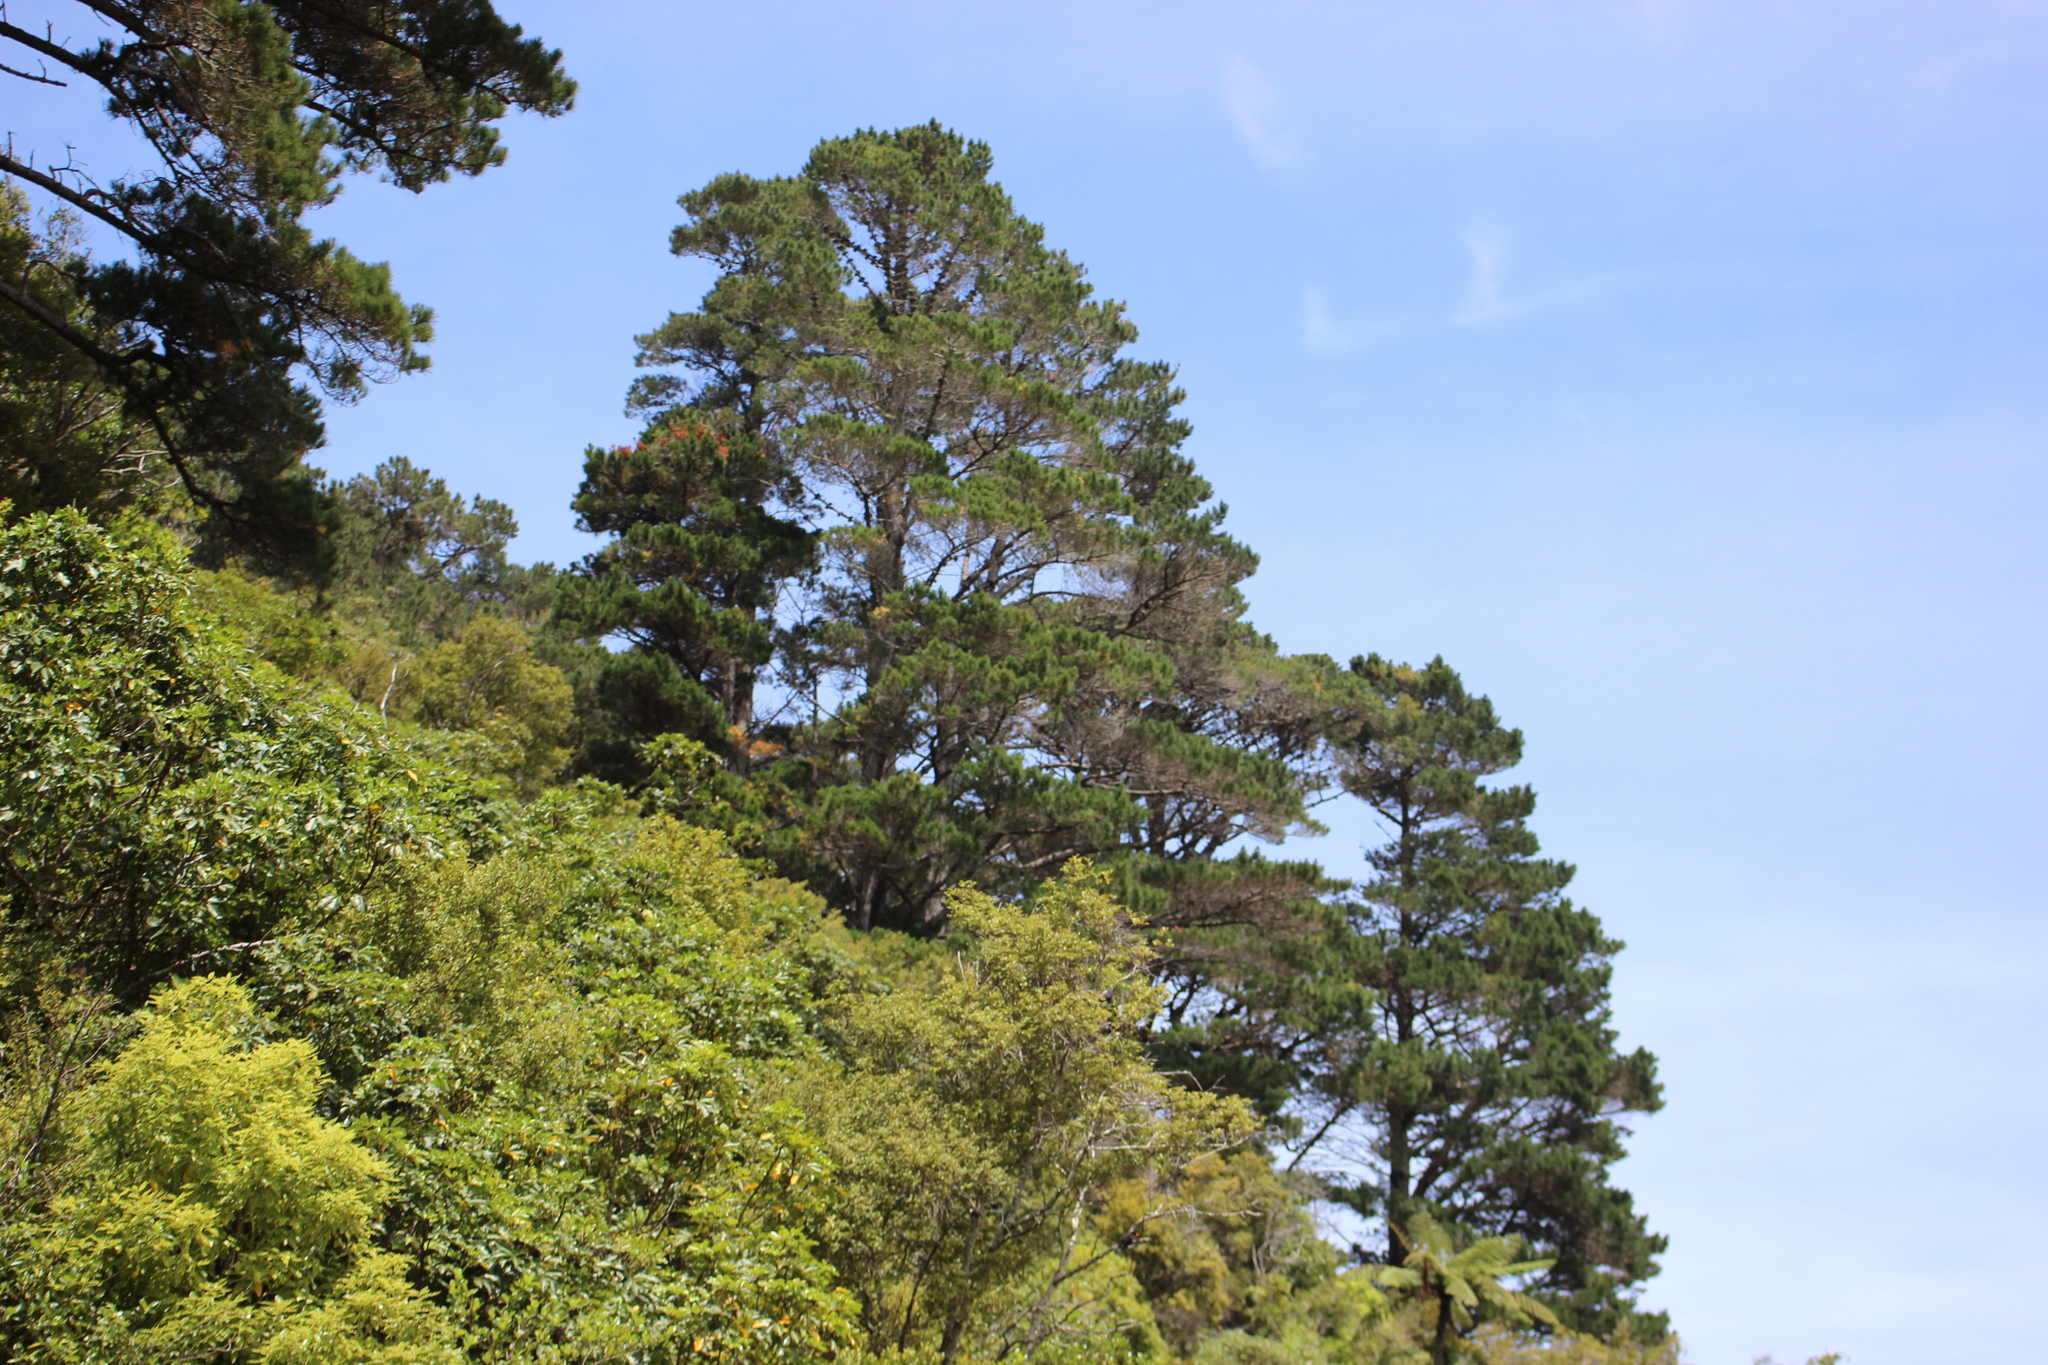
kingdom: Plantae
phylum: Tracheophyta
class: Pinopsida
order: Pinales
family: Pinaceae
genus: Pinus
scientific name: Pinus radiata
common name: Monterey pine
